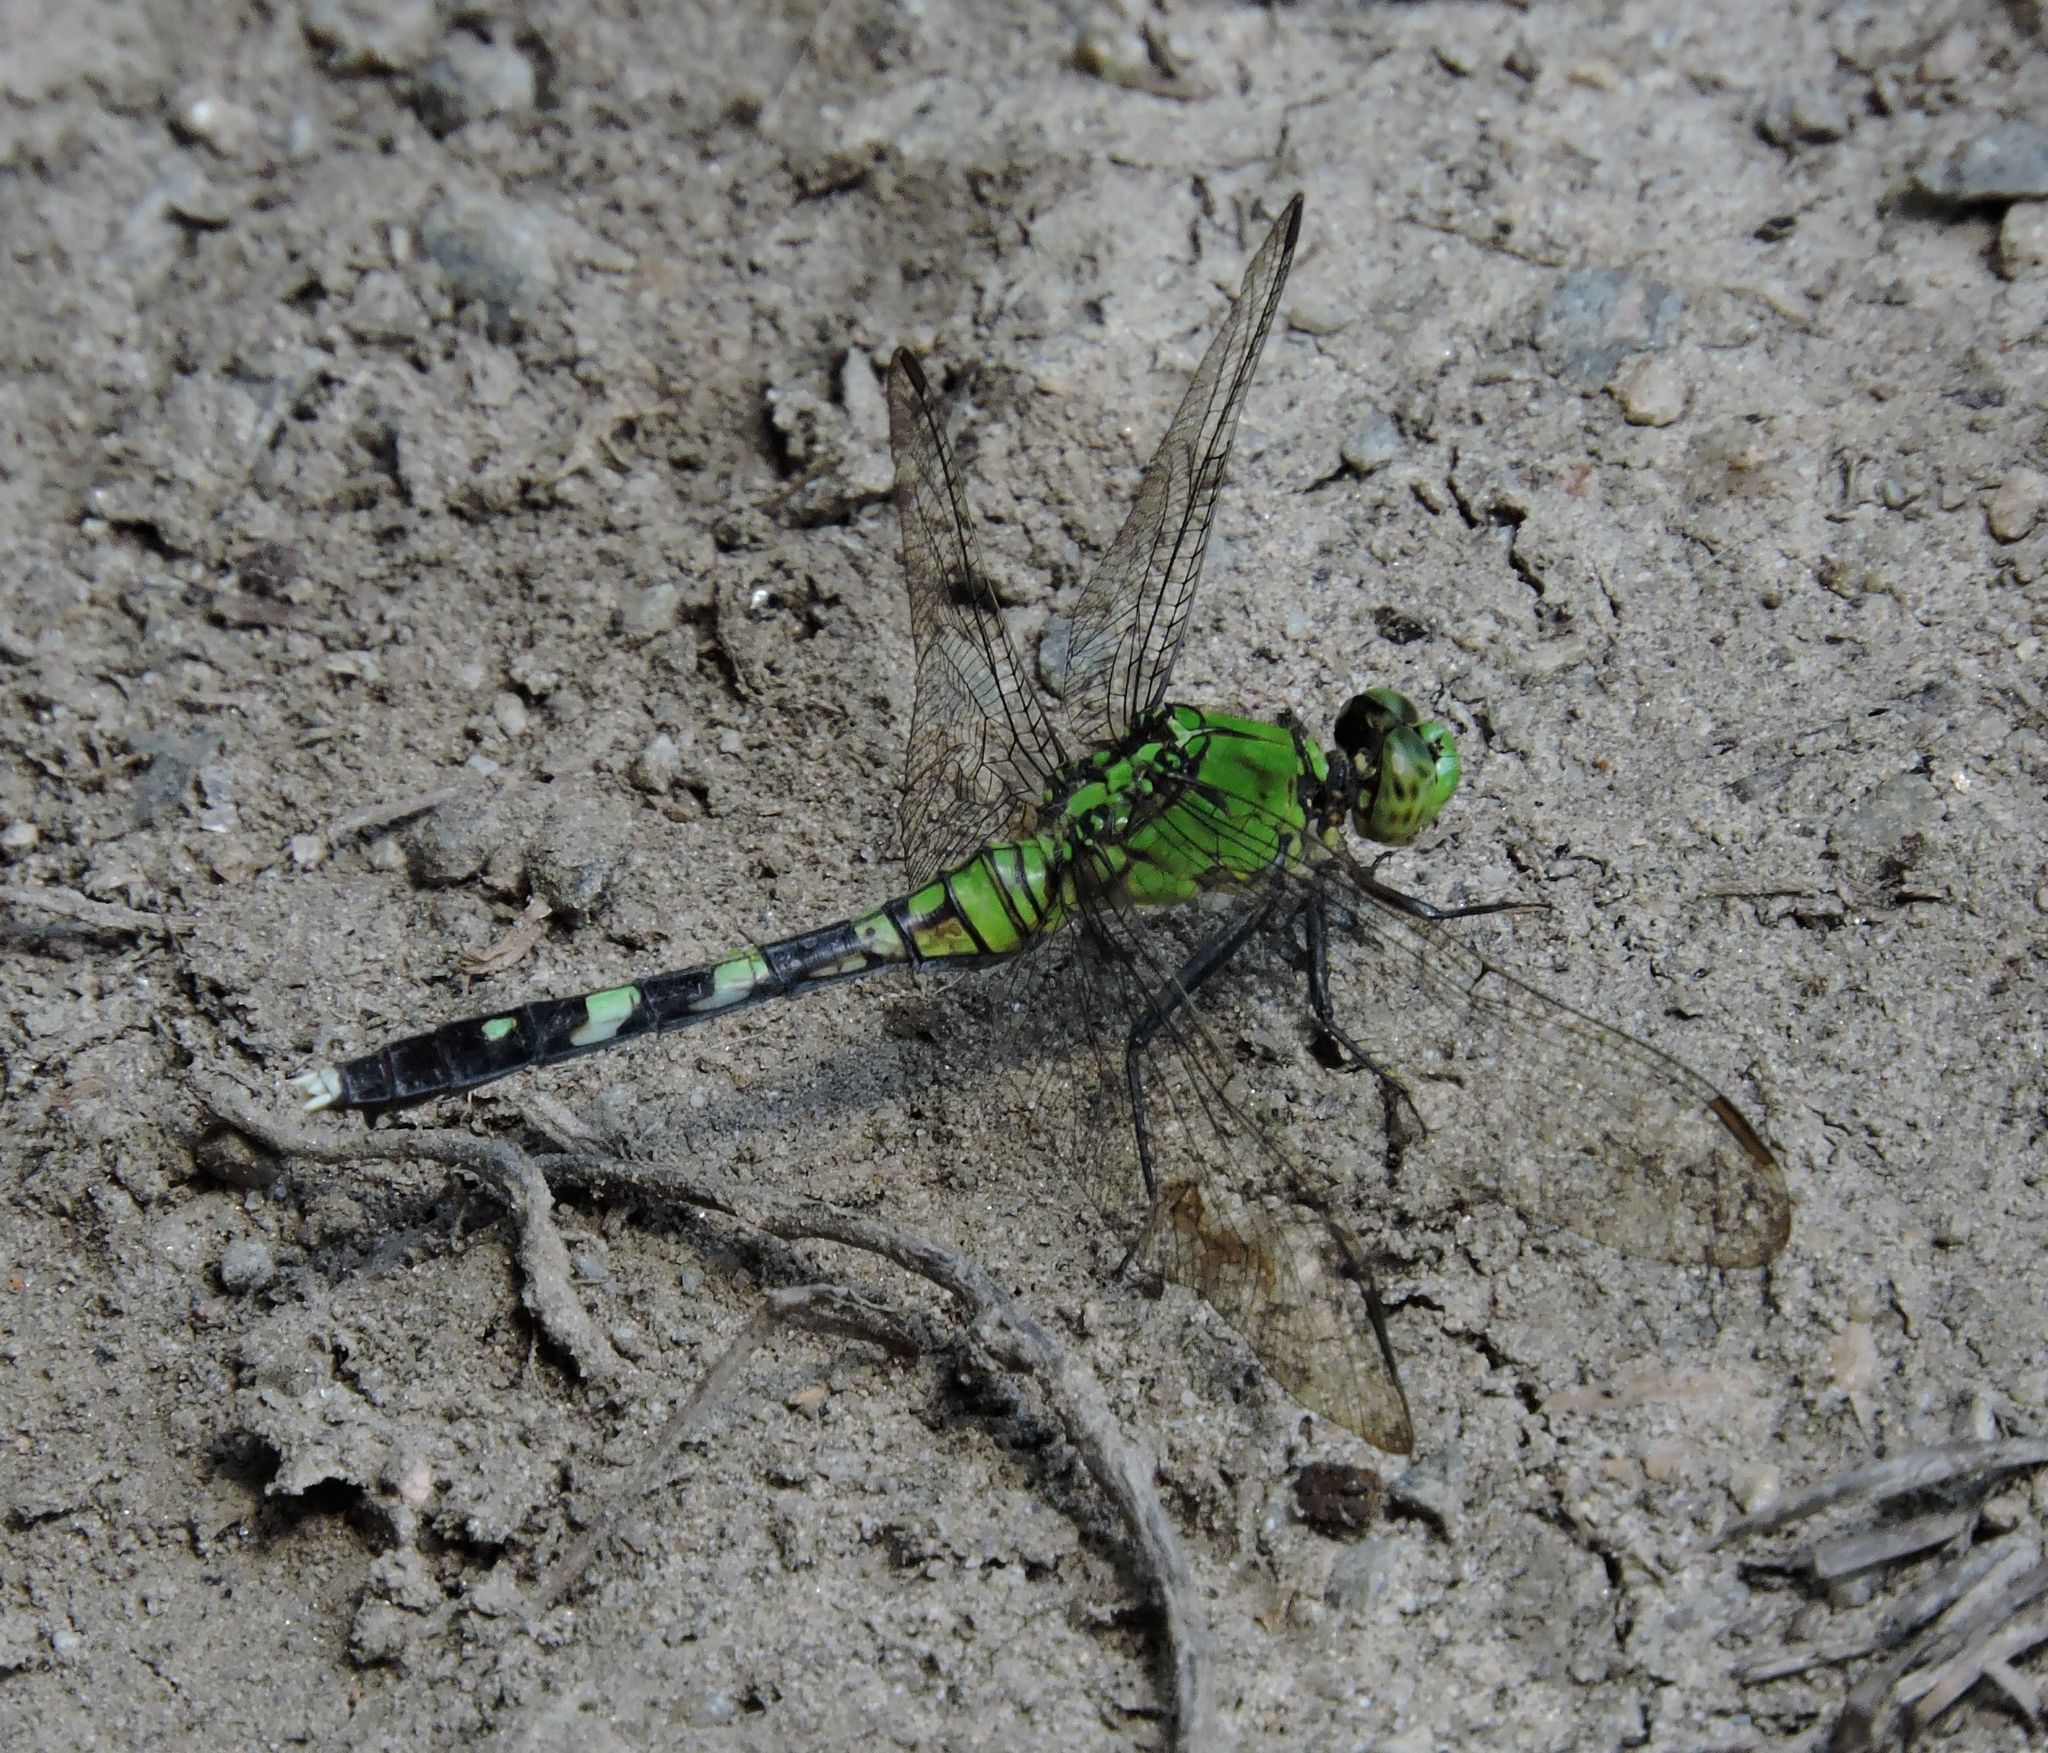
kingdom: Animalia
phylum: Arthropoda
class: Insecta
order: Odonata
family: Libellulidae
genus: Erythemis
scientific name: Erythemis simplicicollis
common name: Eastern pondhawk
